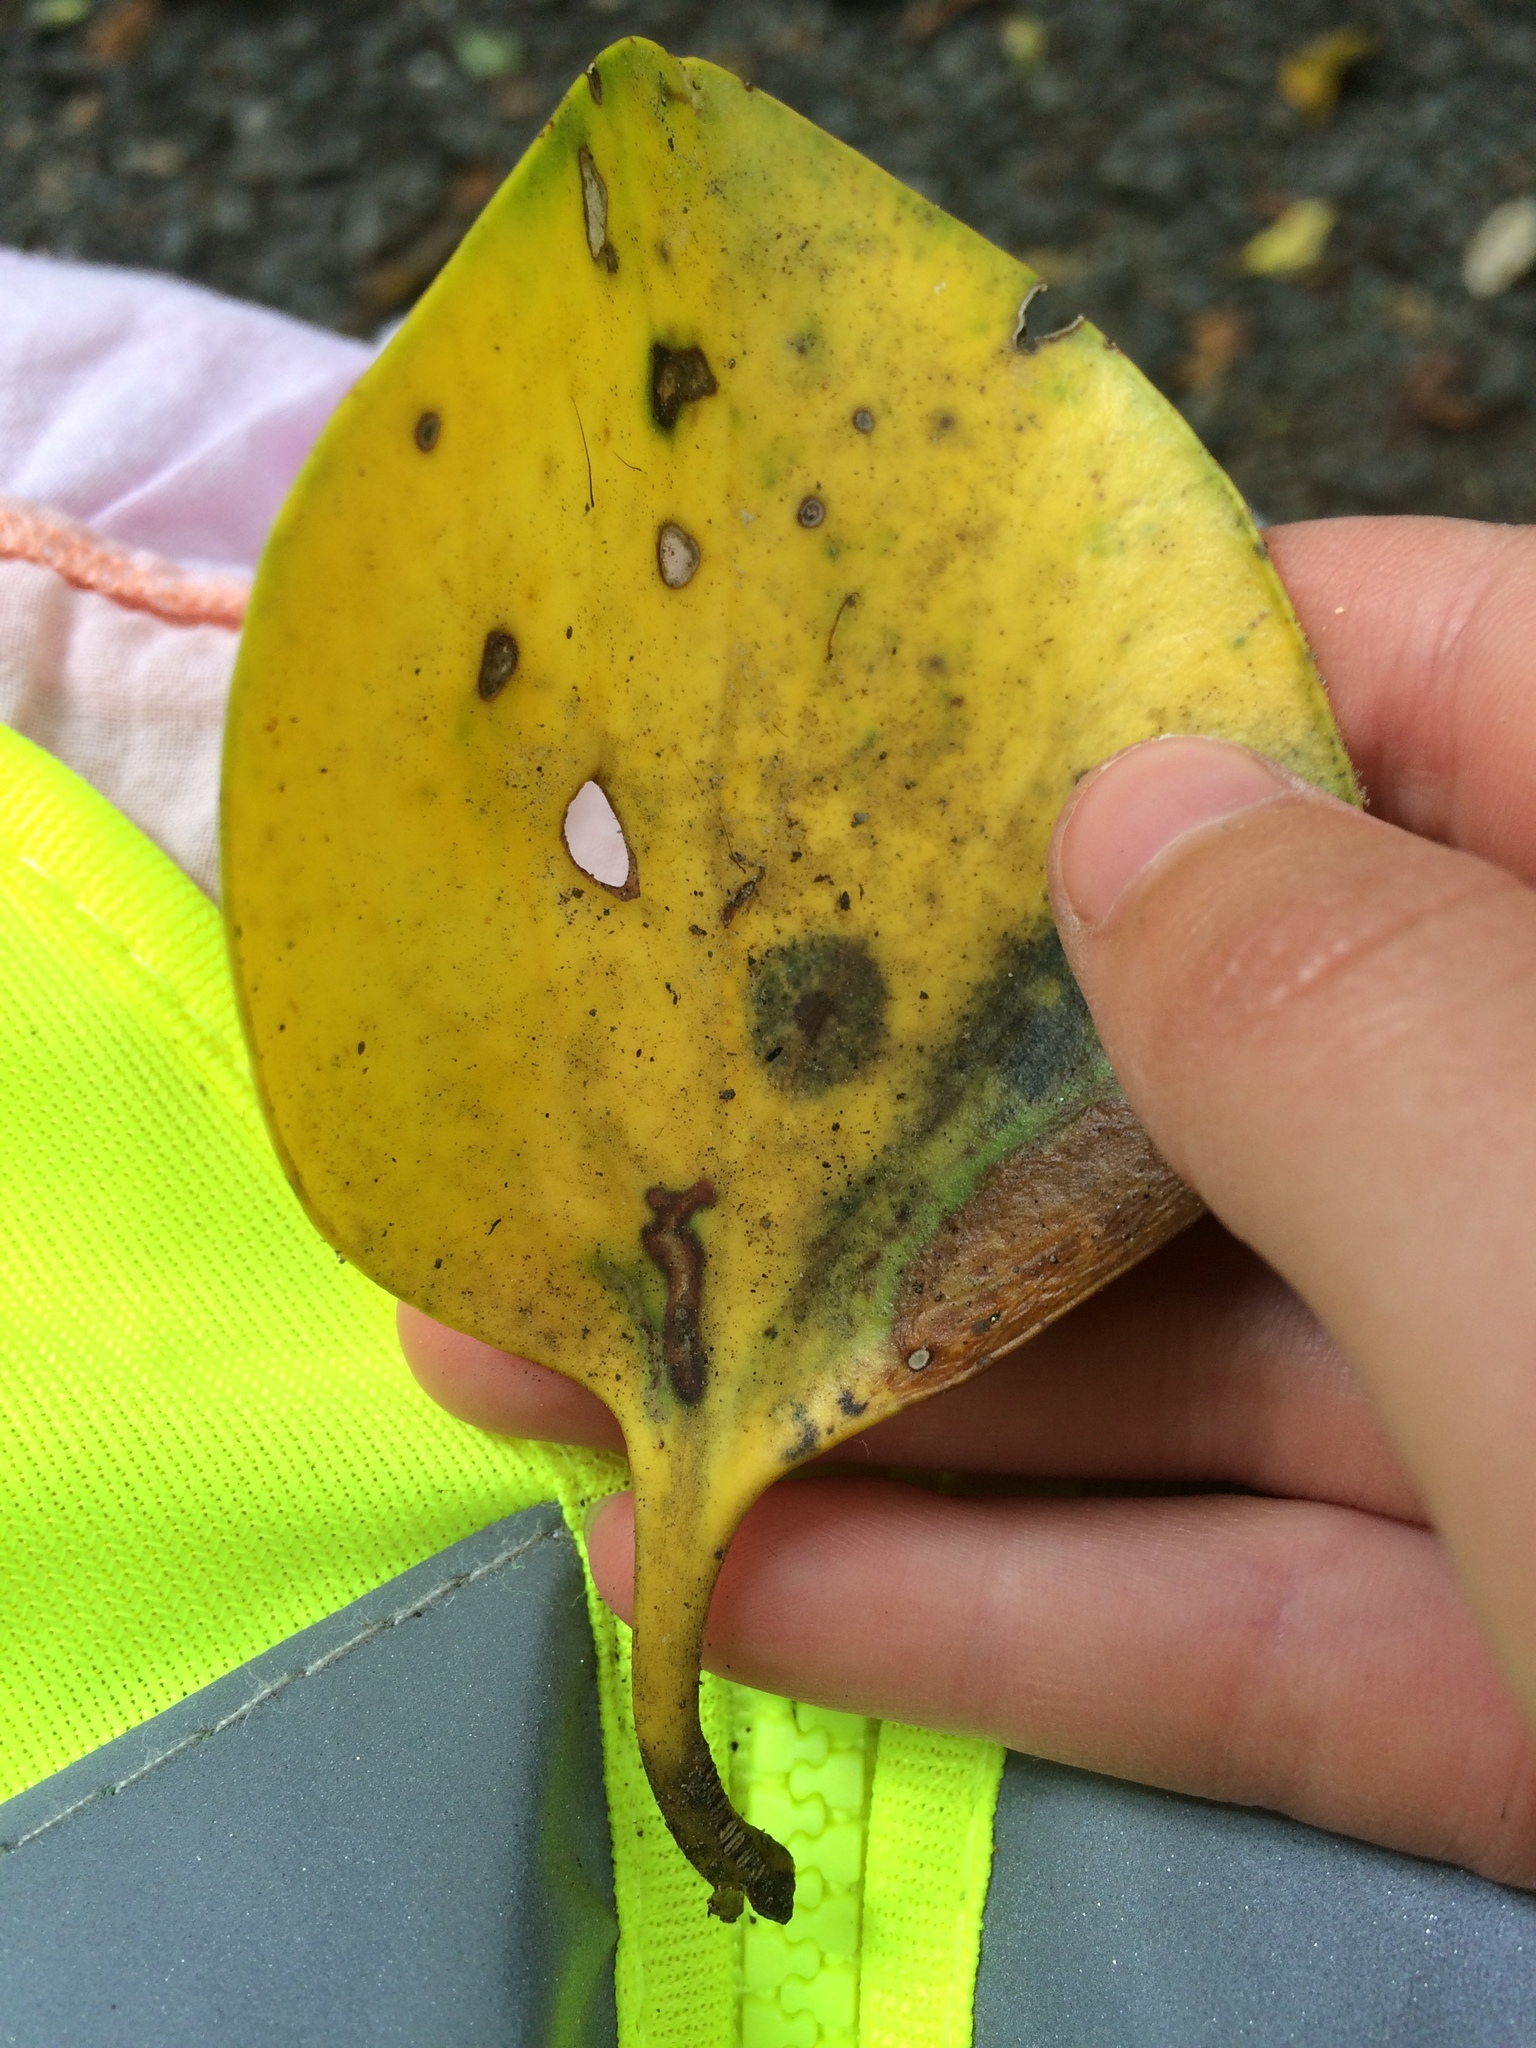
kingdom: Plantae
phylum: Tracheophyta
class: Magnoliopsida
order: Apiales
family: Griseliniaceae
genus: Griselinia
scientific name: Griselinia littoralis
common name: New zealand broadleaf
